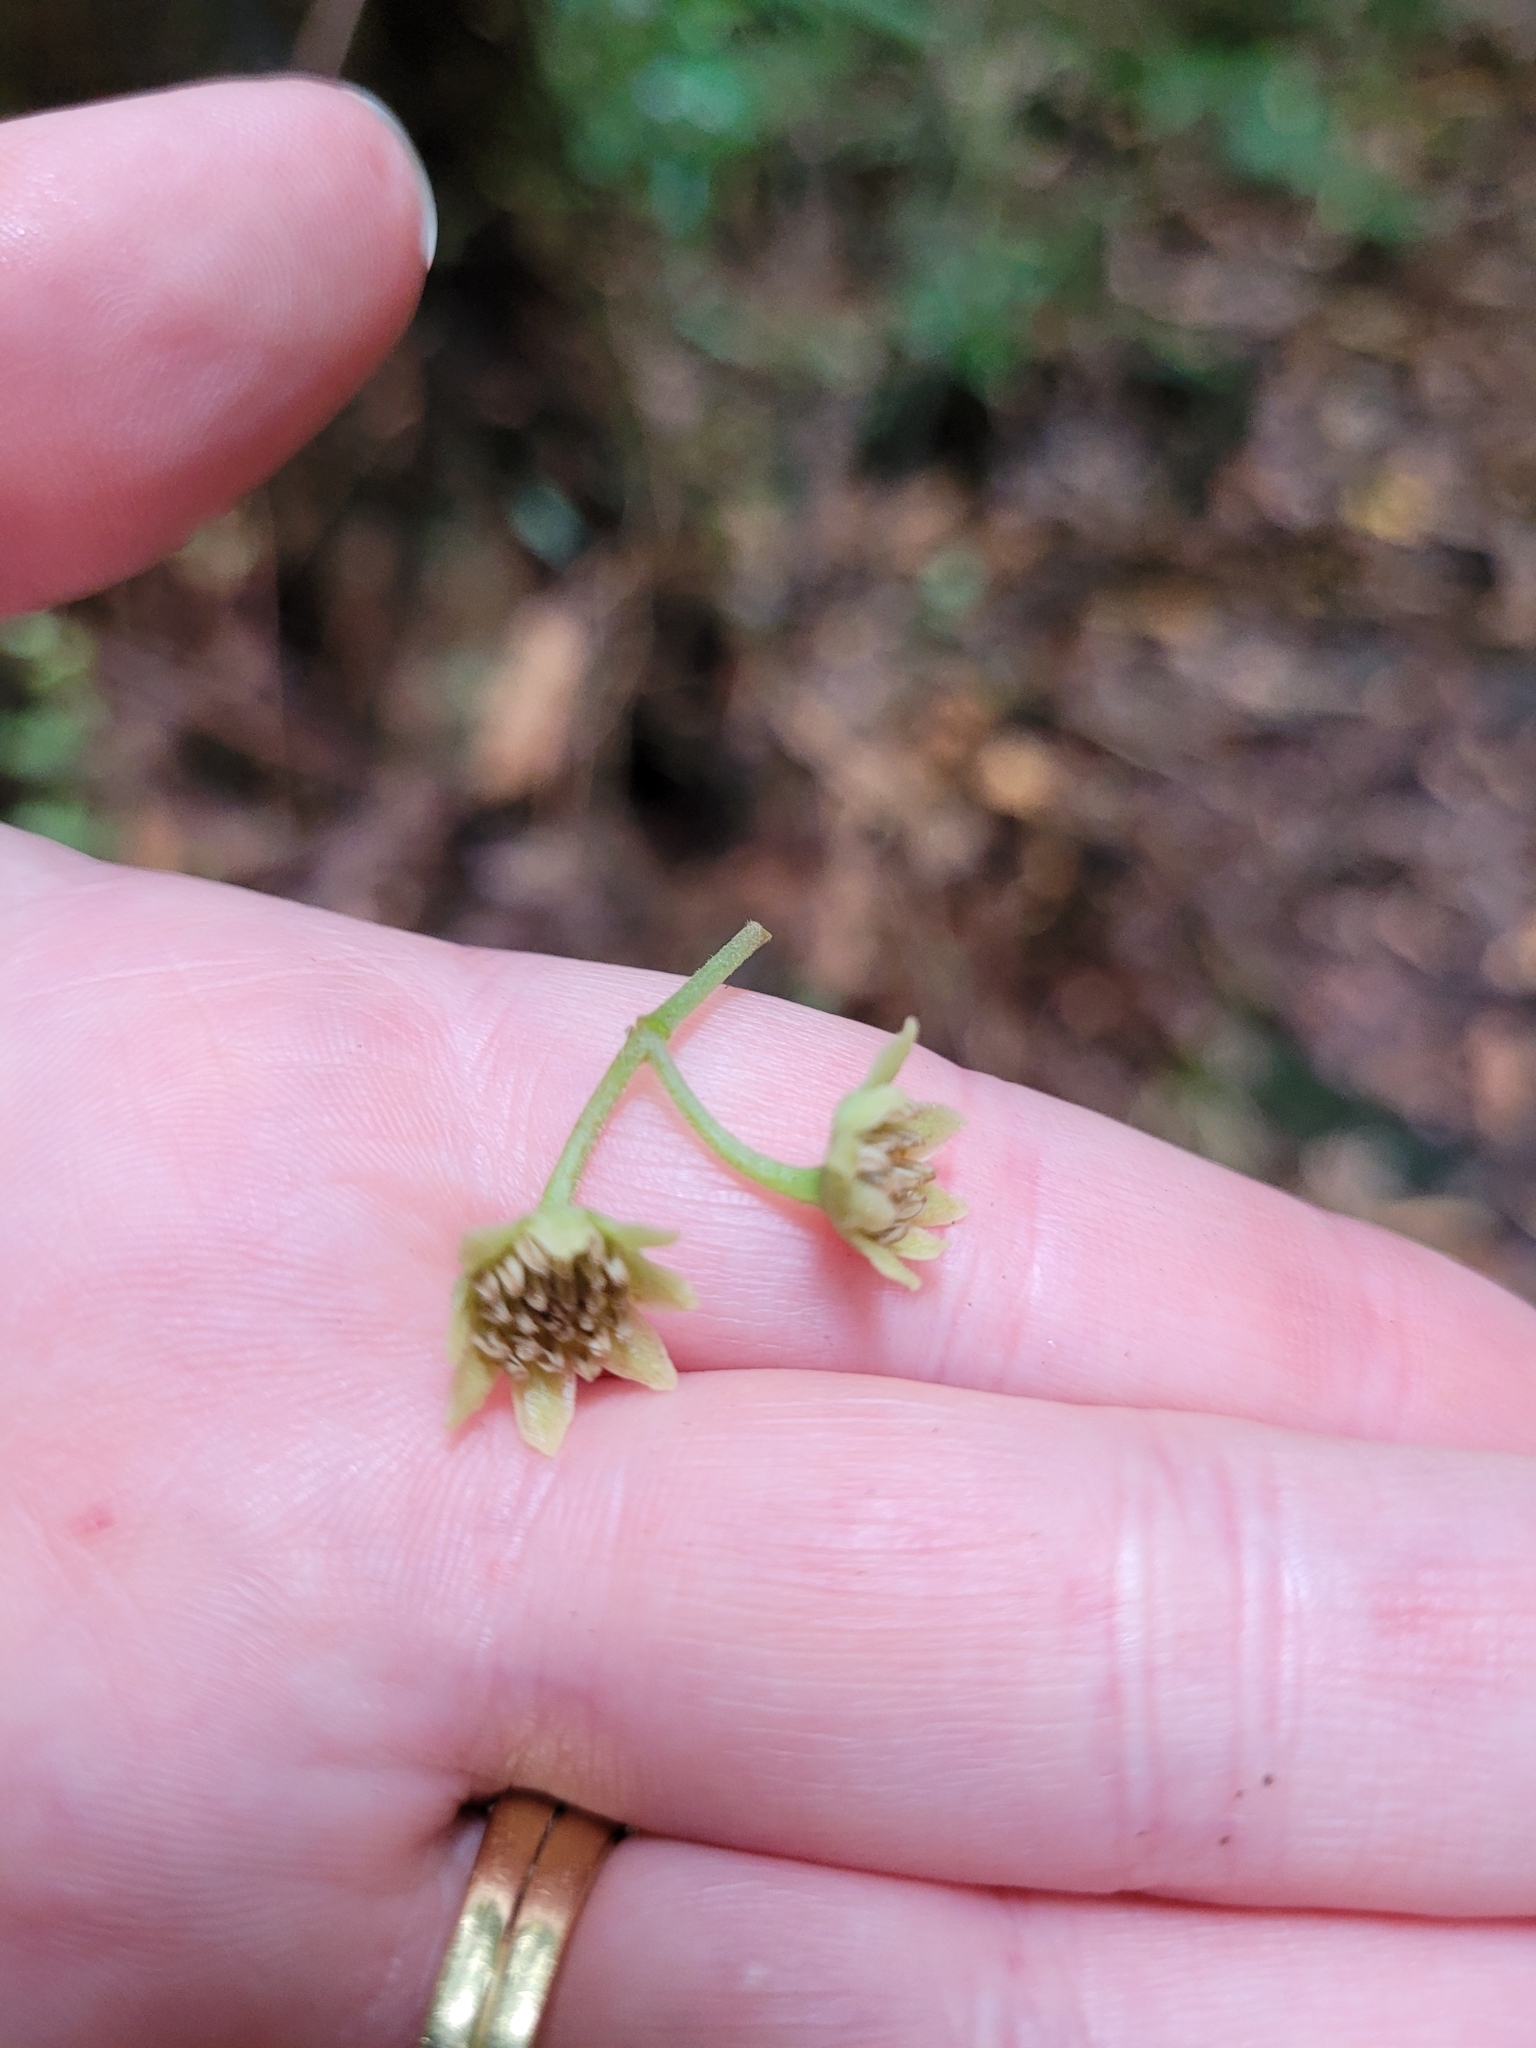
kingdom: Plantae
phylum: Tracheophyta
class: Magnoliopsida
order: Laurales
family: Monimiaceae
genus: Hedycarya
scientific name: Hedycarya arborea
